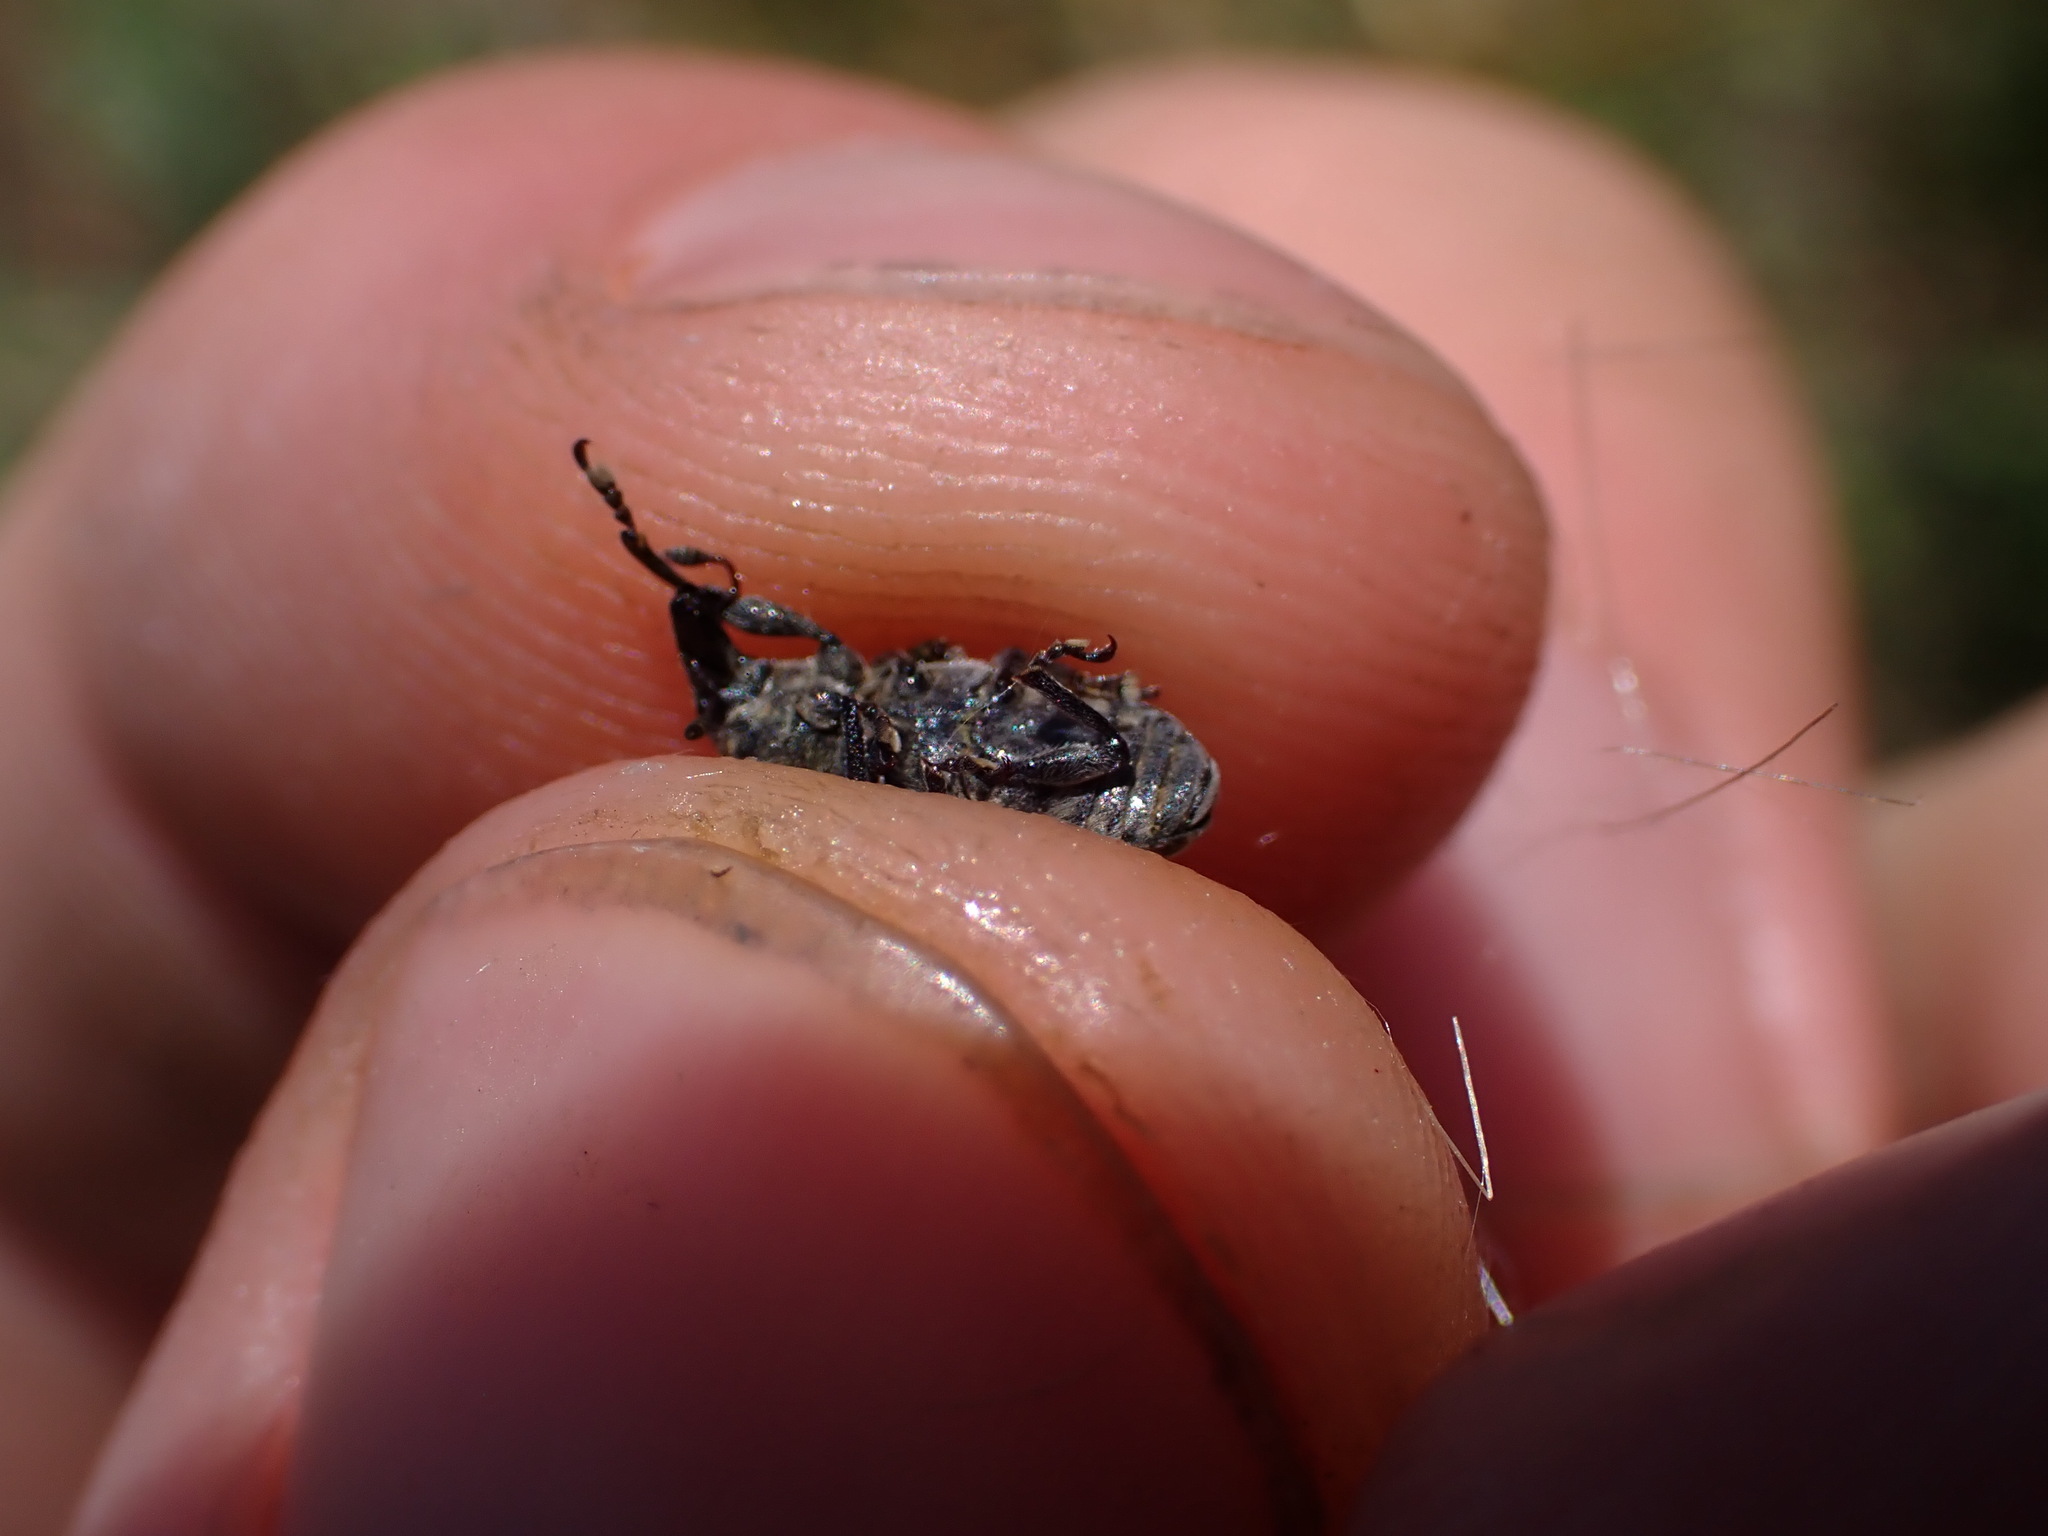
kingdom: Animalia
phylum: Arthropoda
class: Insecta
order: Coleoptera
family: Curculionidae
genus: Larinus
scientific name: Larinus turbinatus
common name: Weevil
